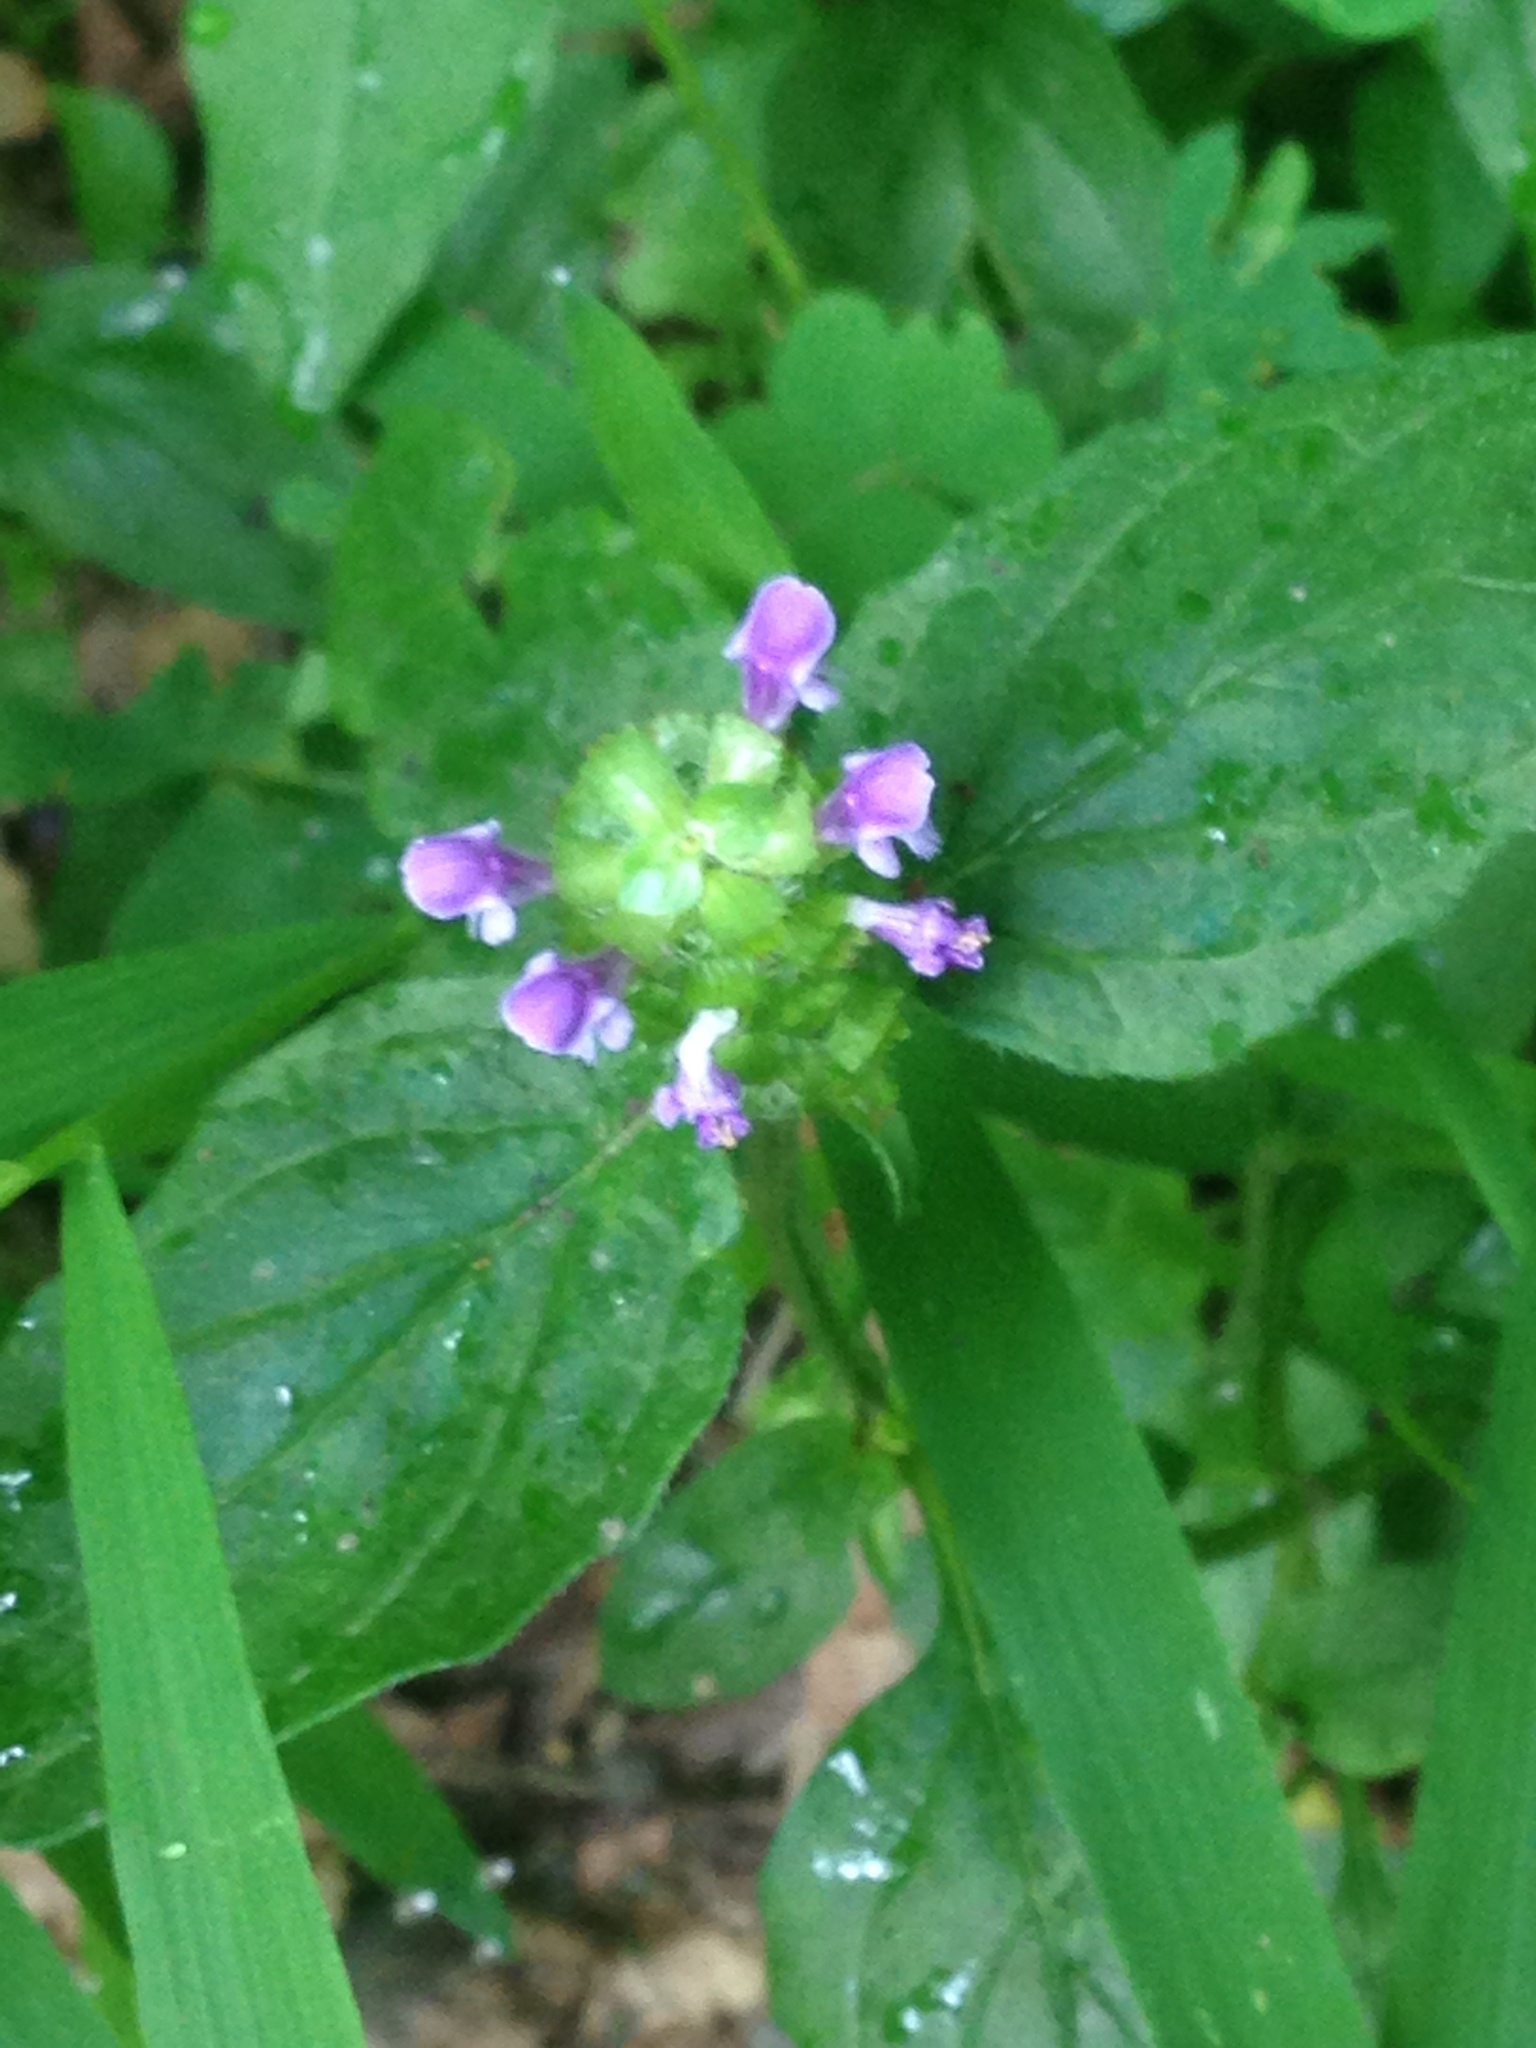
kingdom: Plantae
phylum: Tracheophyta
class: Magnoliopsida
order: Lamiales
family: Lamiaceae
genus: Prunella
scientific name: Prunella vulgaris
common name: Heal-all
